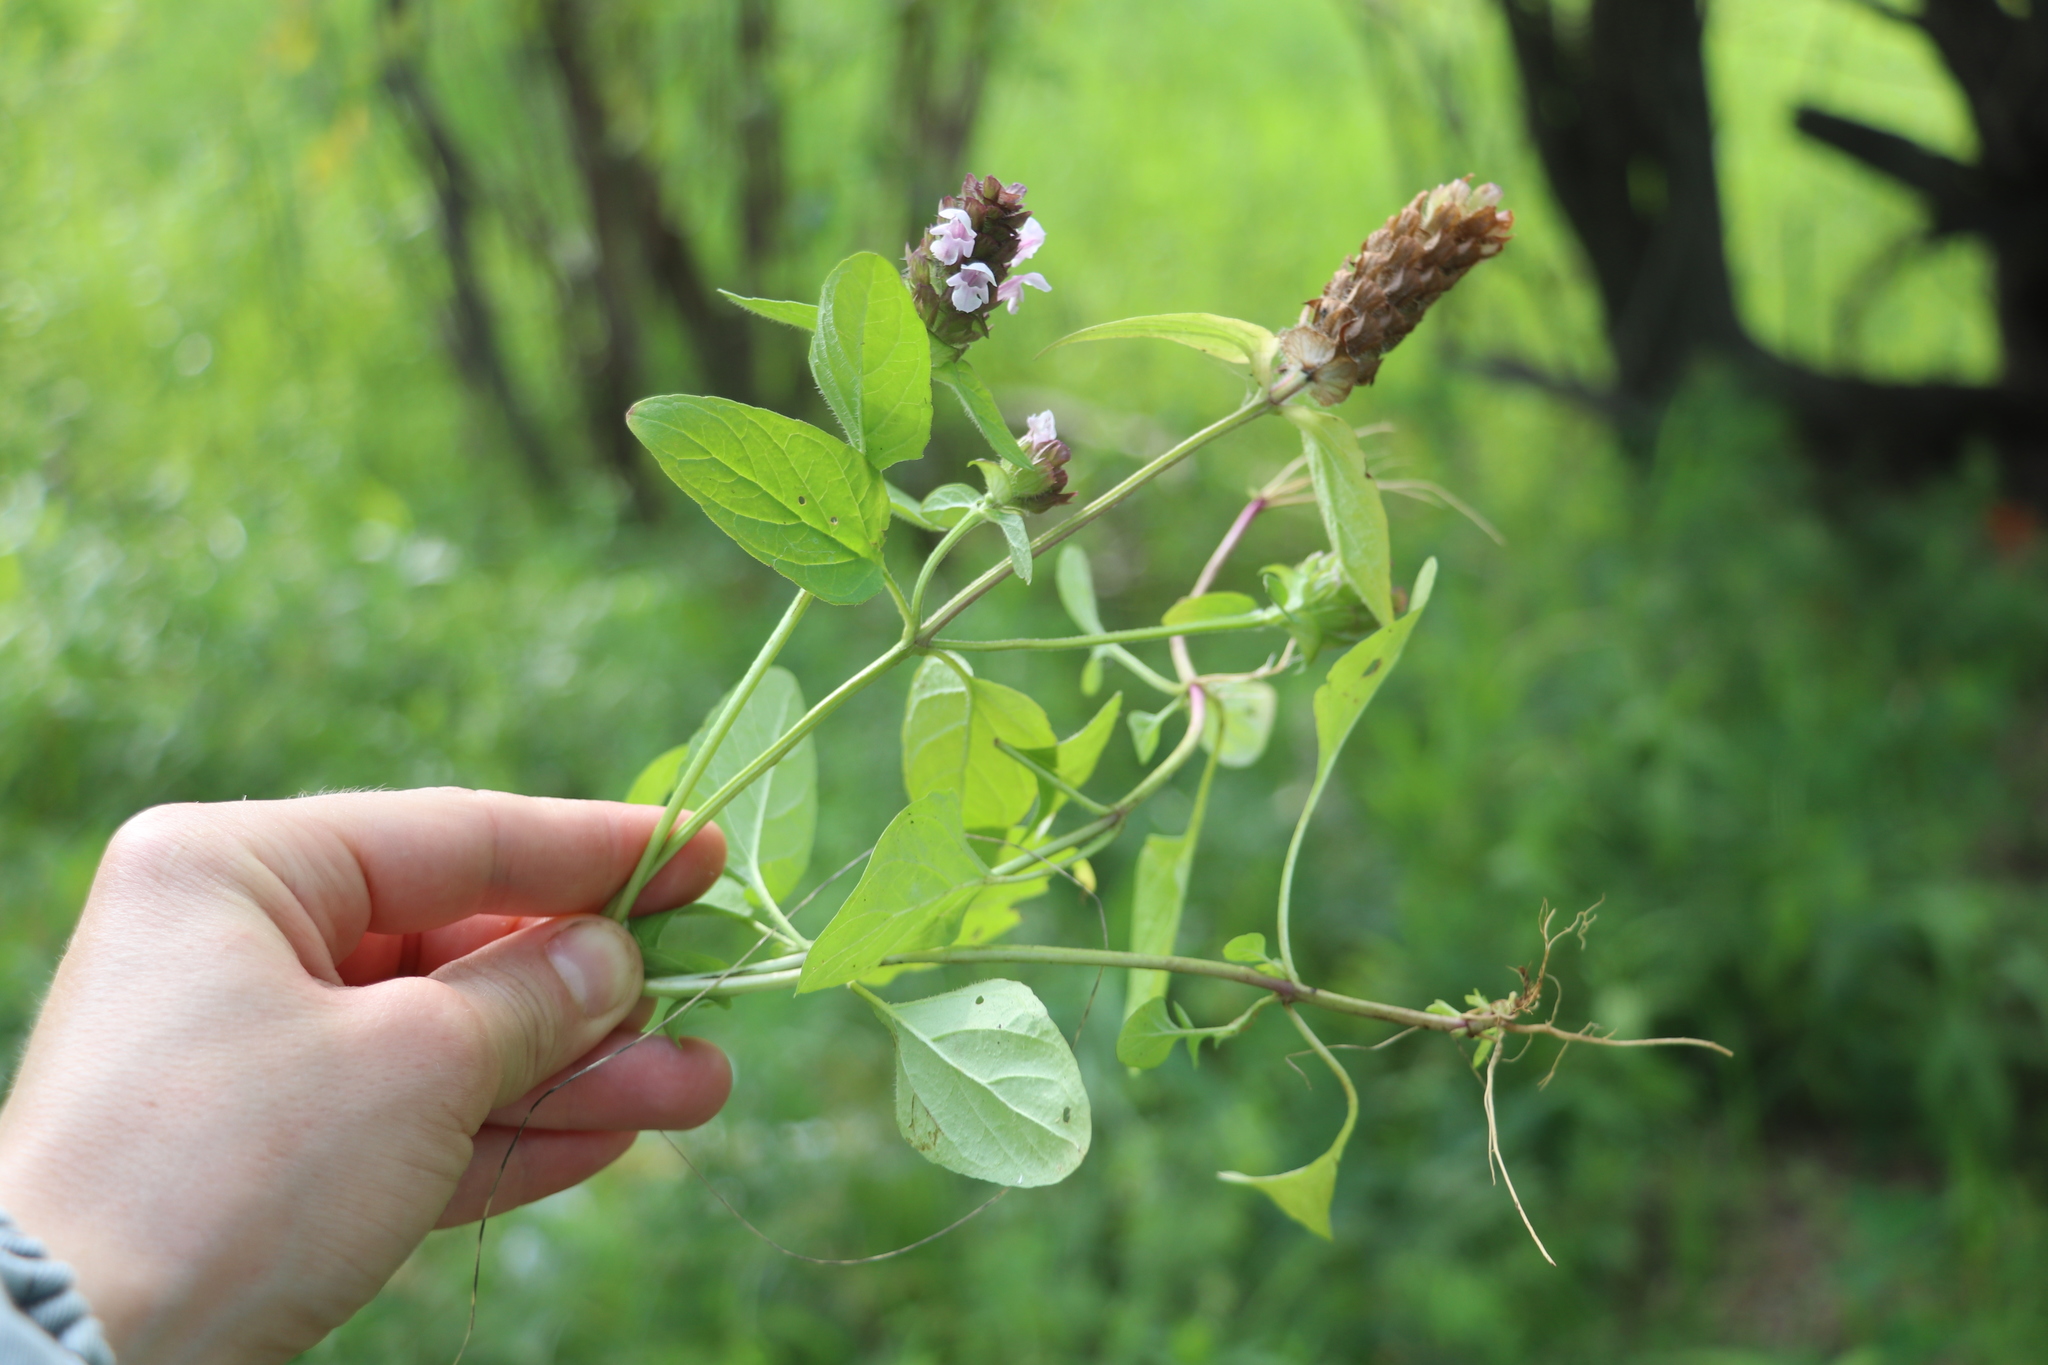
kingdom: Plantae
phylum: Tracheophyta
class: Magnoliopsida
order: Lamiales
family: Lamiaceae
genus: Prunella
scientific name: Prunella vulgaris
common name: Heal-all
